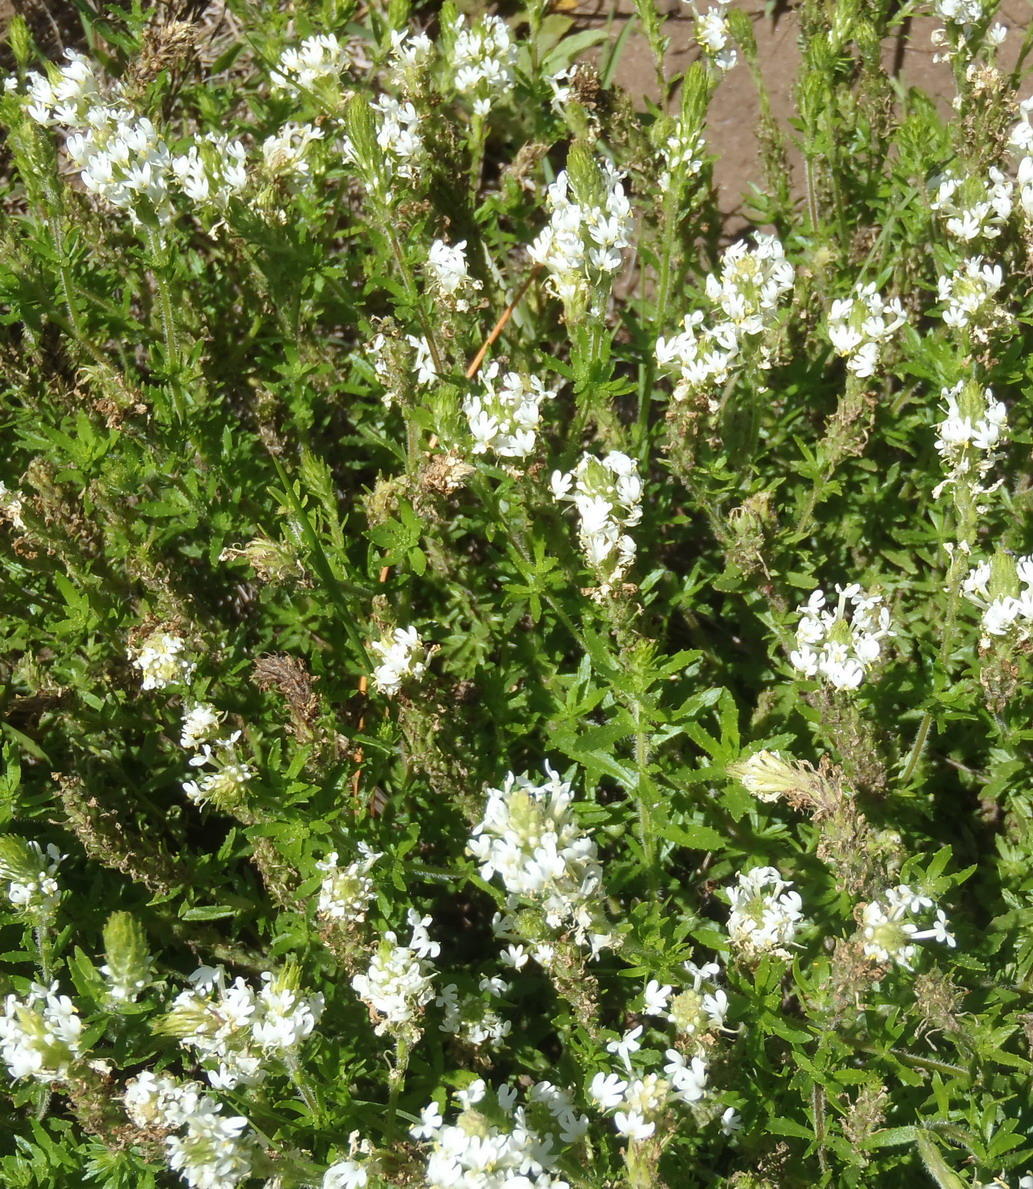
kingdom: Plantae
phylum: Tracheophyta
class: Magnoliopsida
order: Lamiales
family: Scrophulariaceae
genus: Dischisma
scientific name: Dischisma ciliatum
